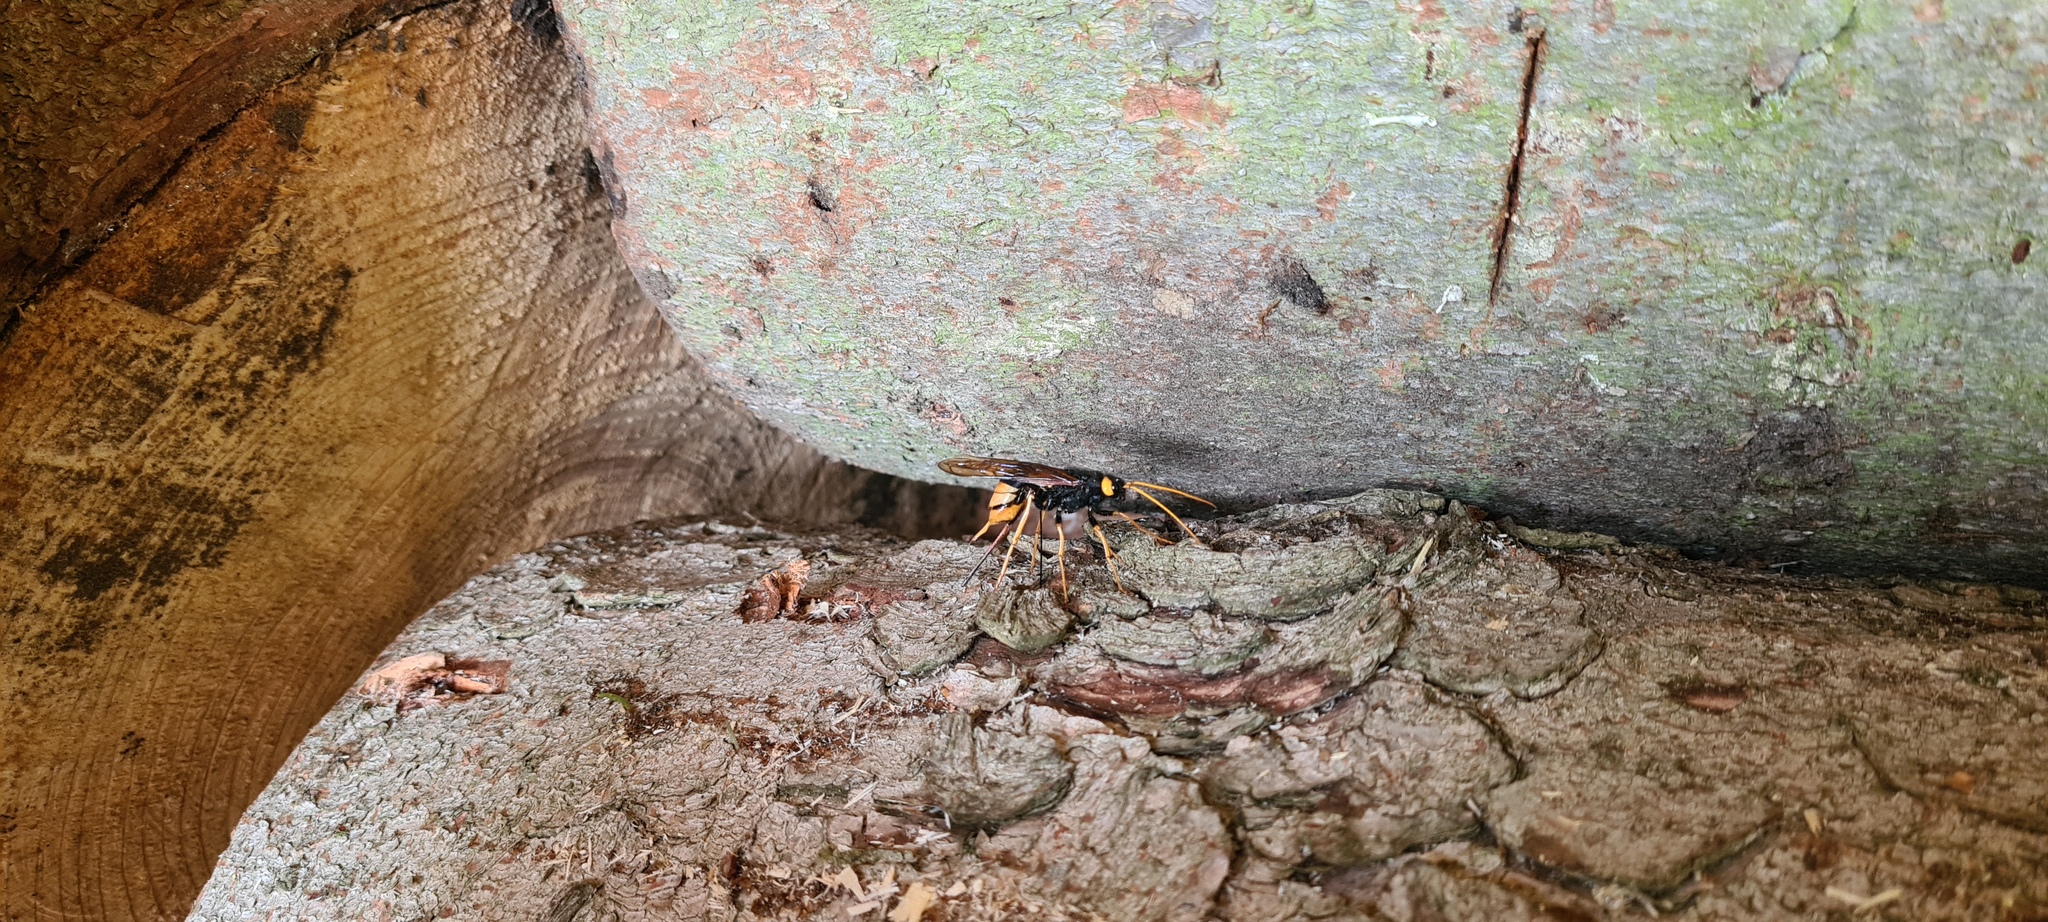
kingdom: Animalia
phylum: Arthropoda
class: Insecta
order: Hymenoptera
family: Siricidae
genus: Urocerus
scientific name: Urocerus gigas
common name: Giant woodwasp
